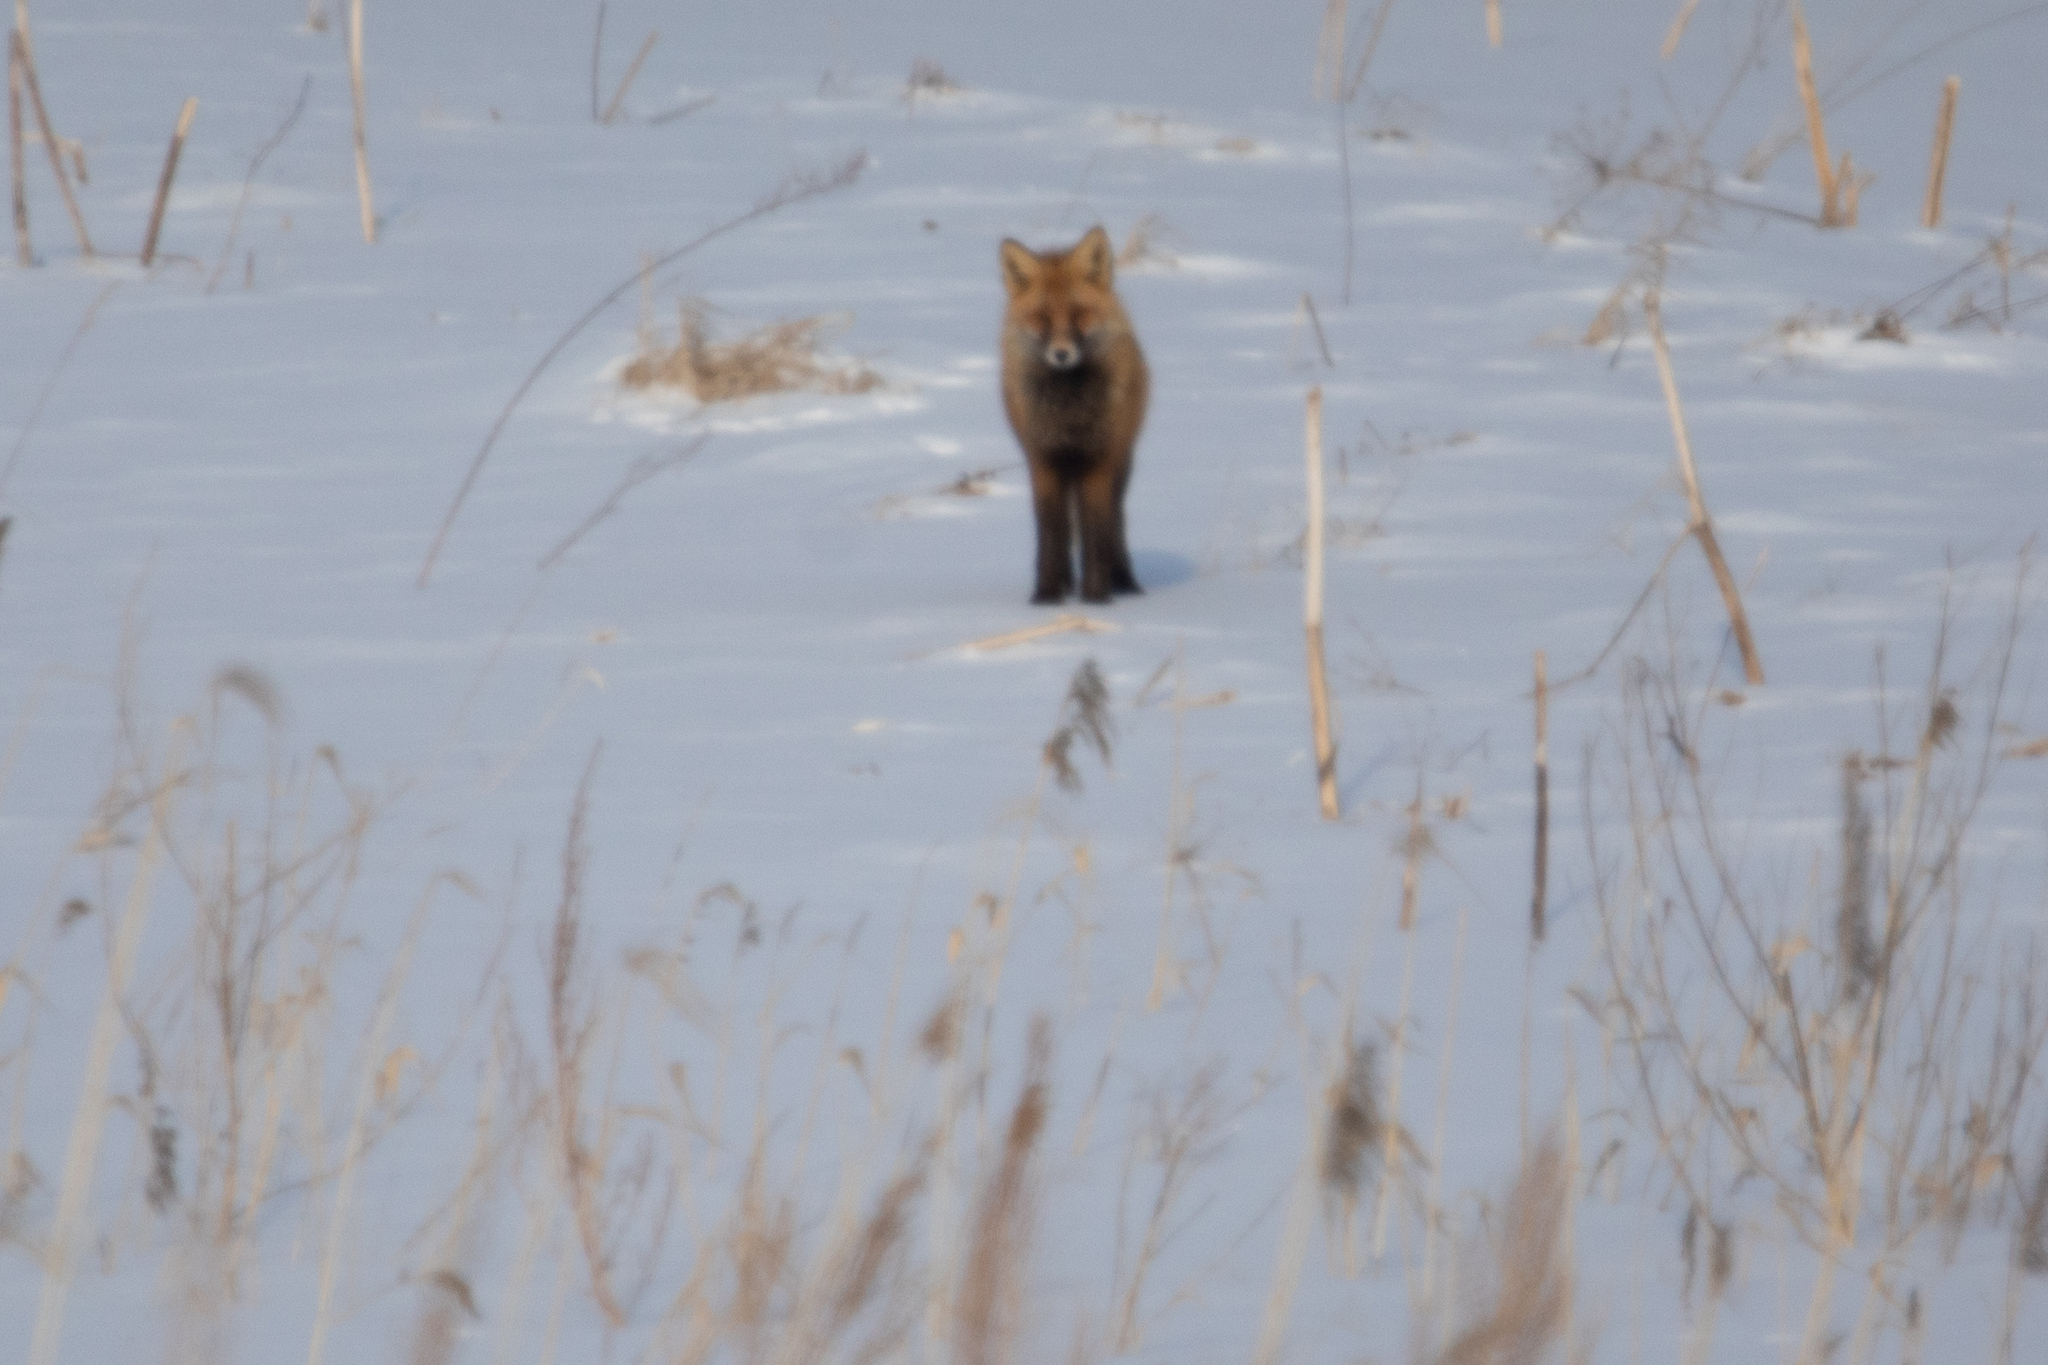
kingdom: Animalia
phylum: Chordata
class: Mammalia
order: Carnivora
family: Canidae
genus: Vulpes
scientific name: Vulpes vulpes
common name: Red fox
